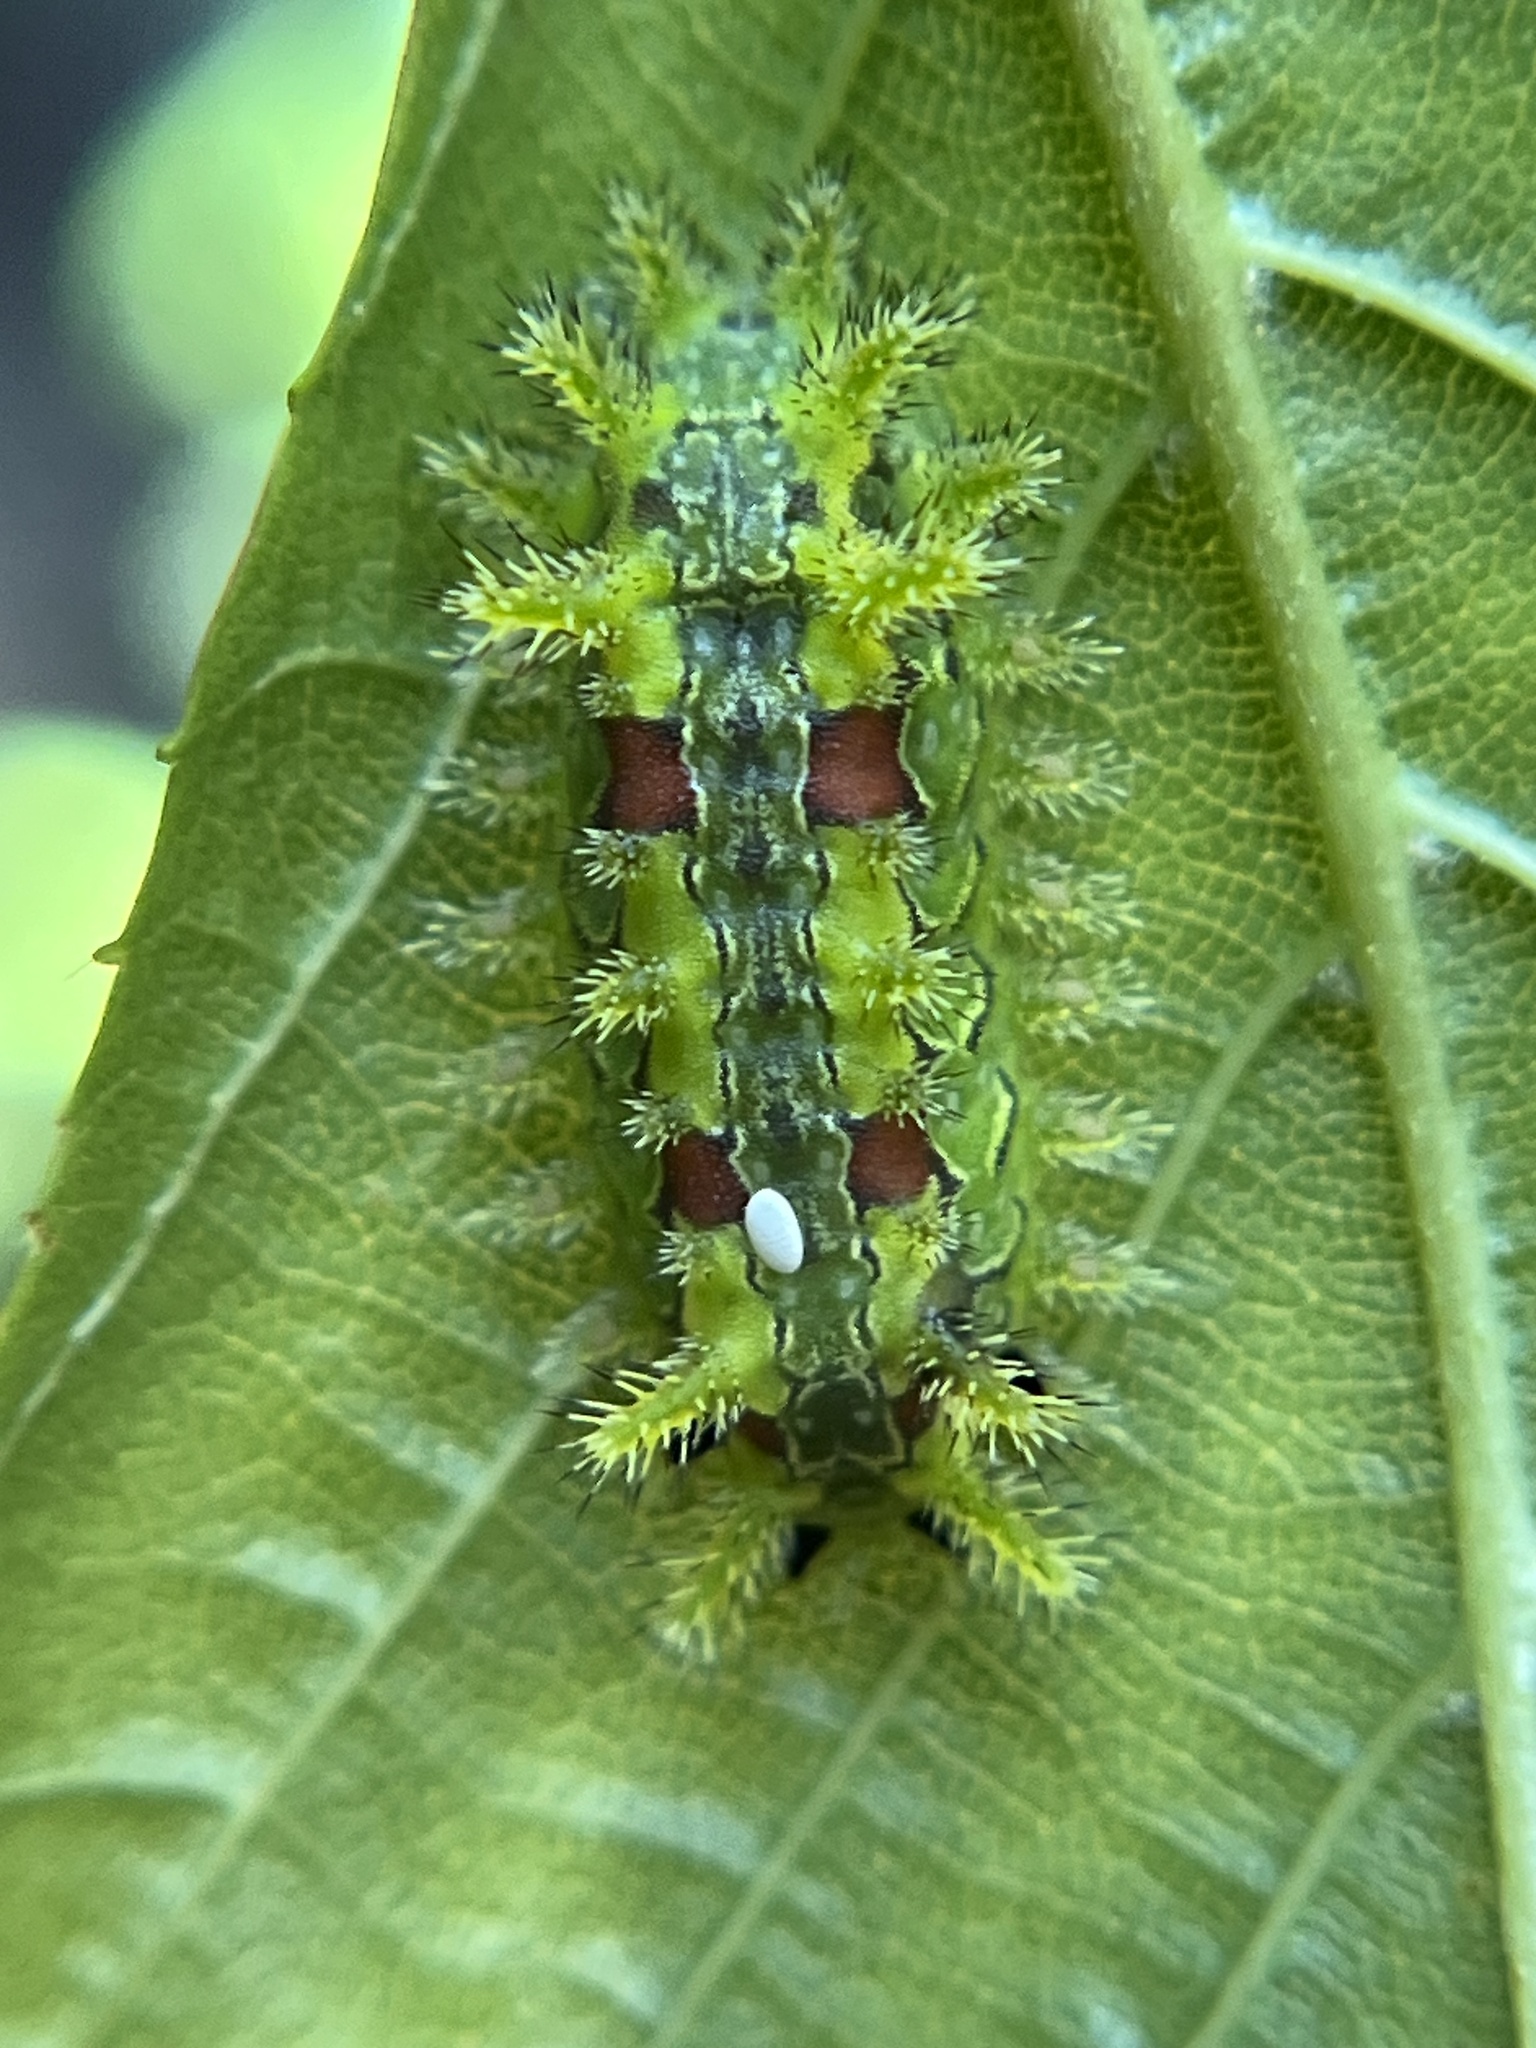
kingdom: Animalia
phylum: Arthropoda
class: Insecta
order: Lepidoptera
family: Limacodidae
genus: Euclea
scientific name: Euclea delphinii
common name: Spiny oak-slug moth
